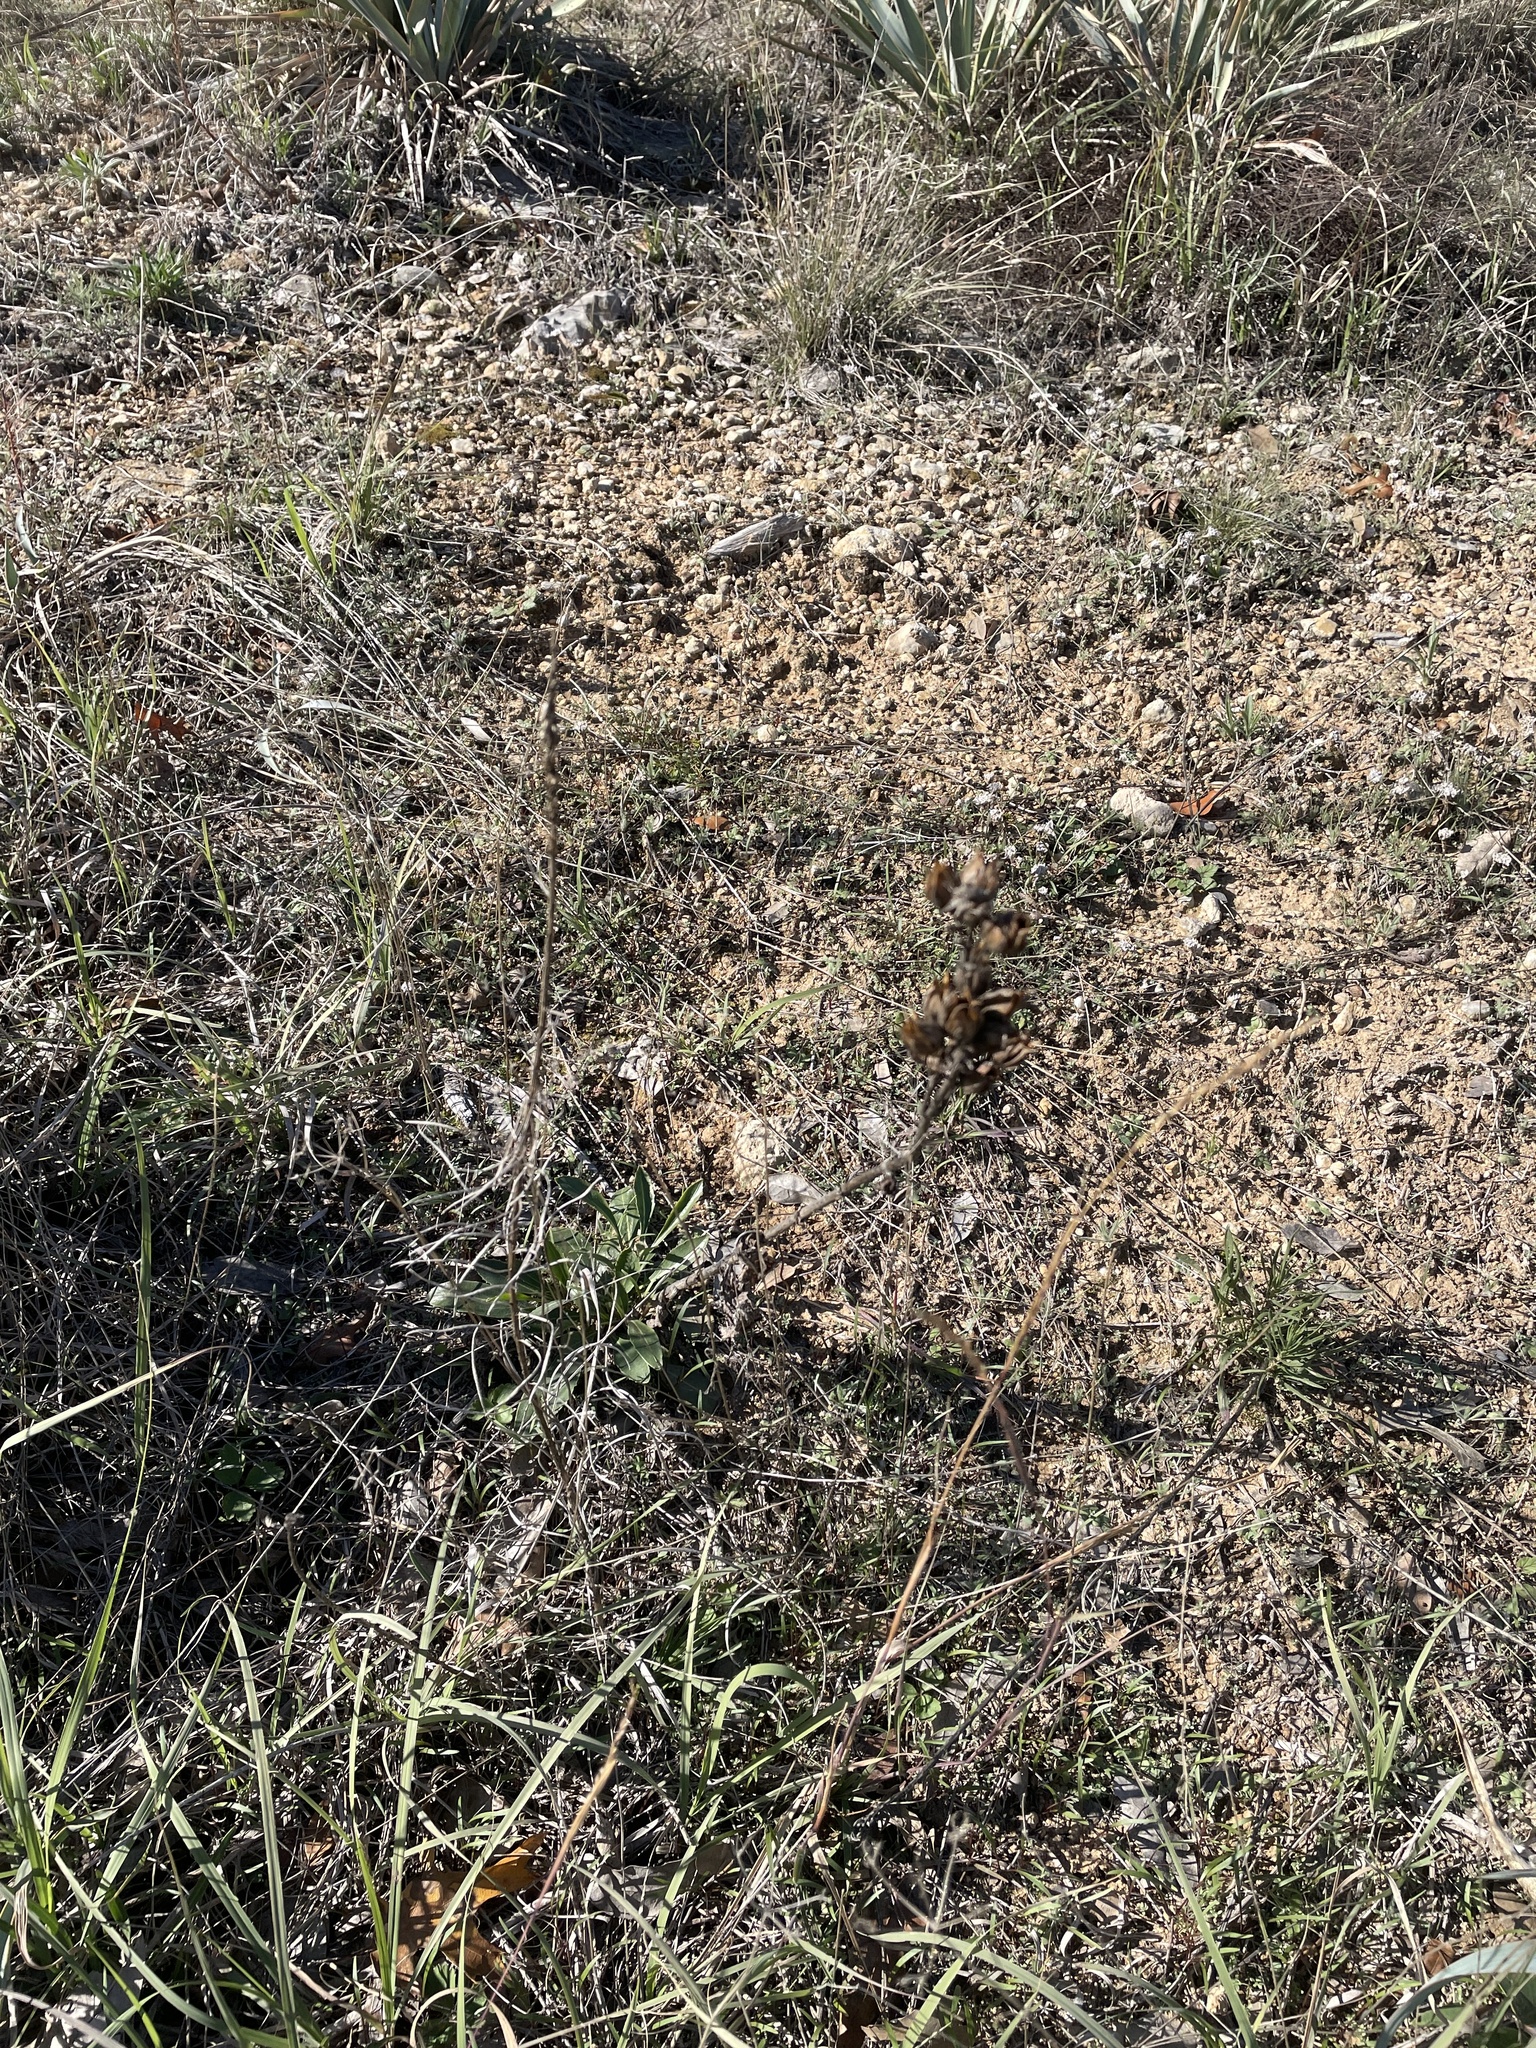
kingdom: Plantae
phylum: Tracheophyta
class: Magnoliopsida
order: Lamiales
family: Plantaginaceae
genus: Penstemon
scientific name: Penstemon cobaea
